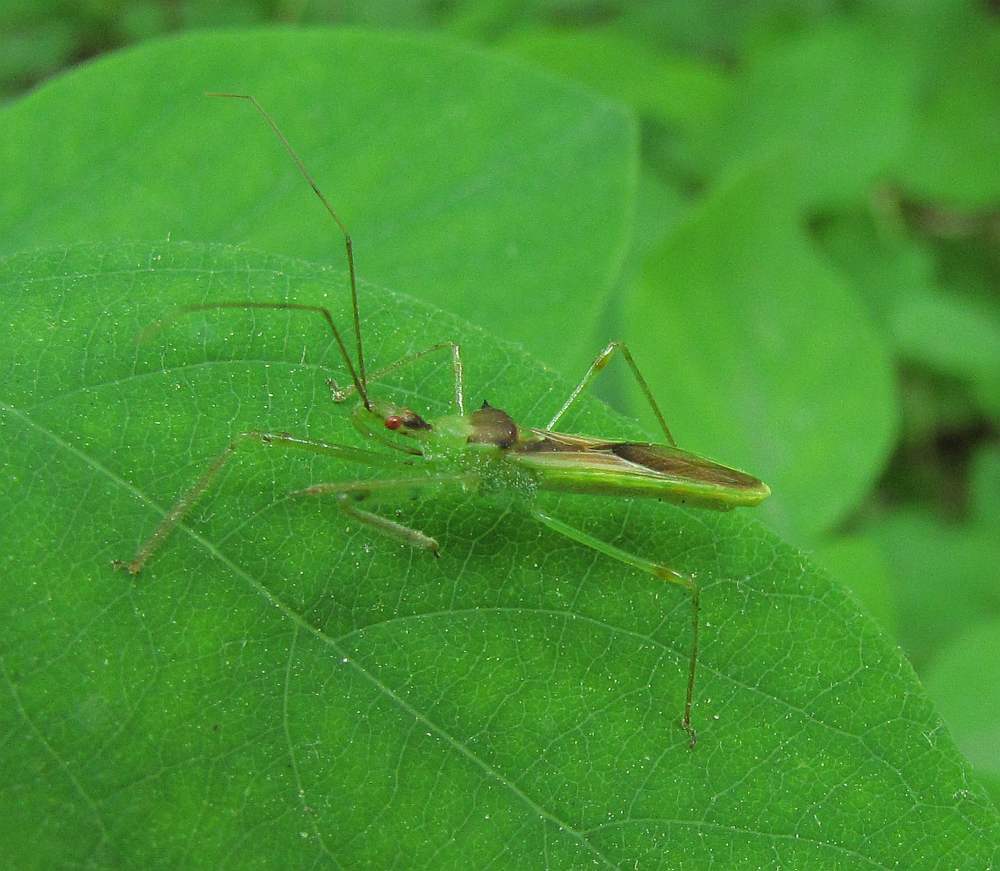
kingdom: Animalia
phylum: Arthropoda
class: Insecta
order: Hemiptera
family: Reduviidae
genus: Zelus
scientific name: Zelus luridus
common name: Pale green assassin bug
